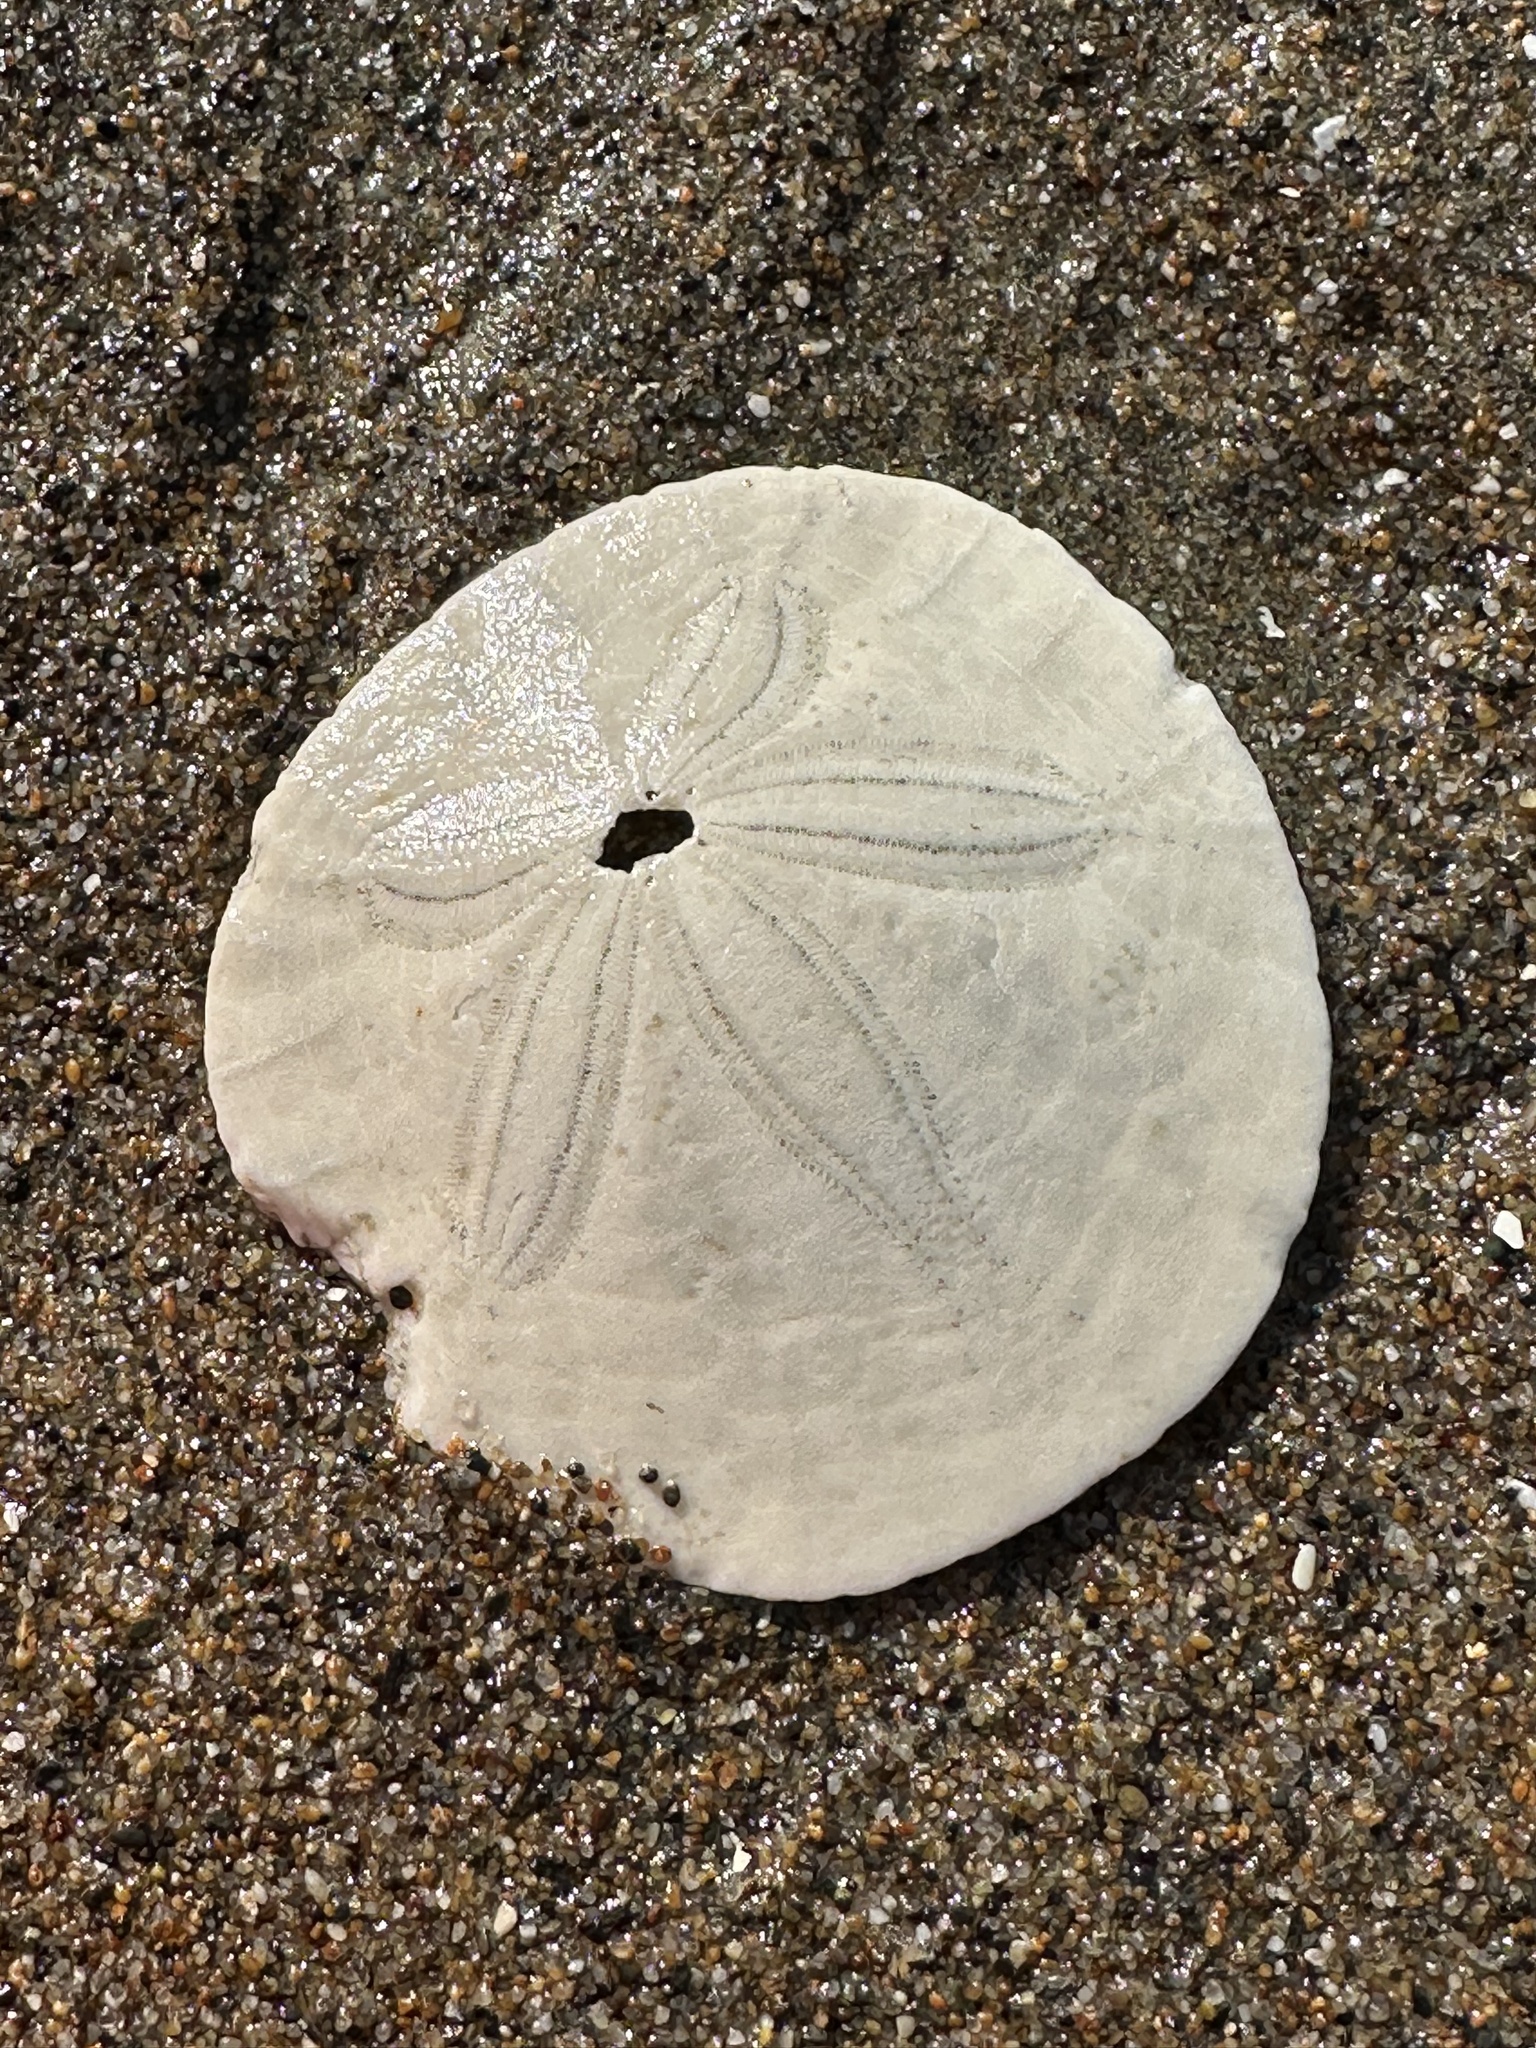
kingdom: Animalia
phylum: Echinodermata
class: Echinoidea
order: Echinolampadacea
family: Dendrasteridae
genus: Dendraster
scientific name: Dendraster excentricus
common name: Eccentric sand dollar sea urchin
